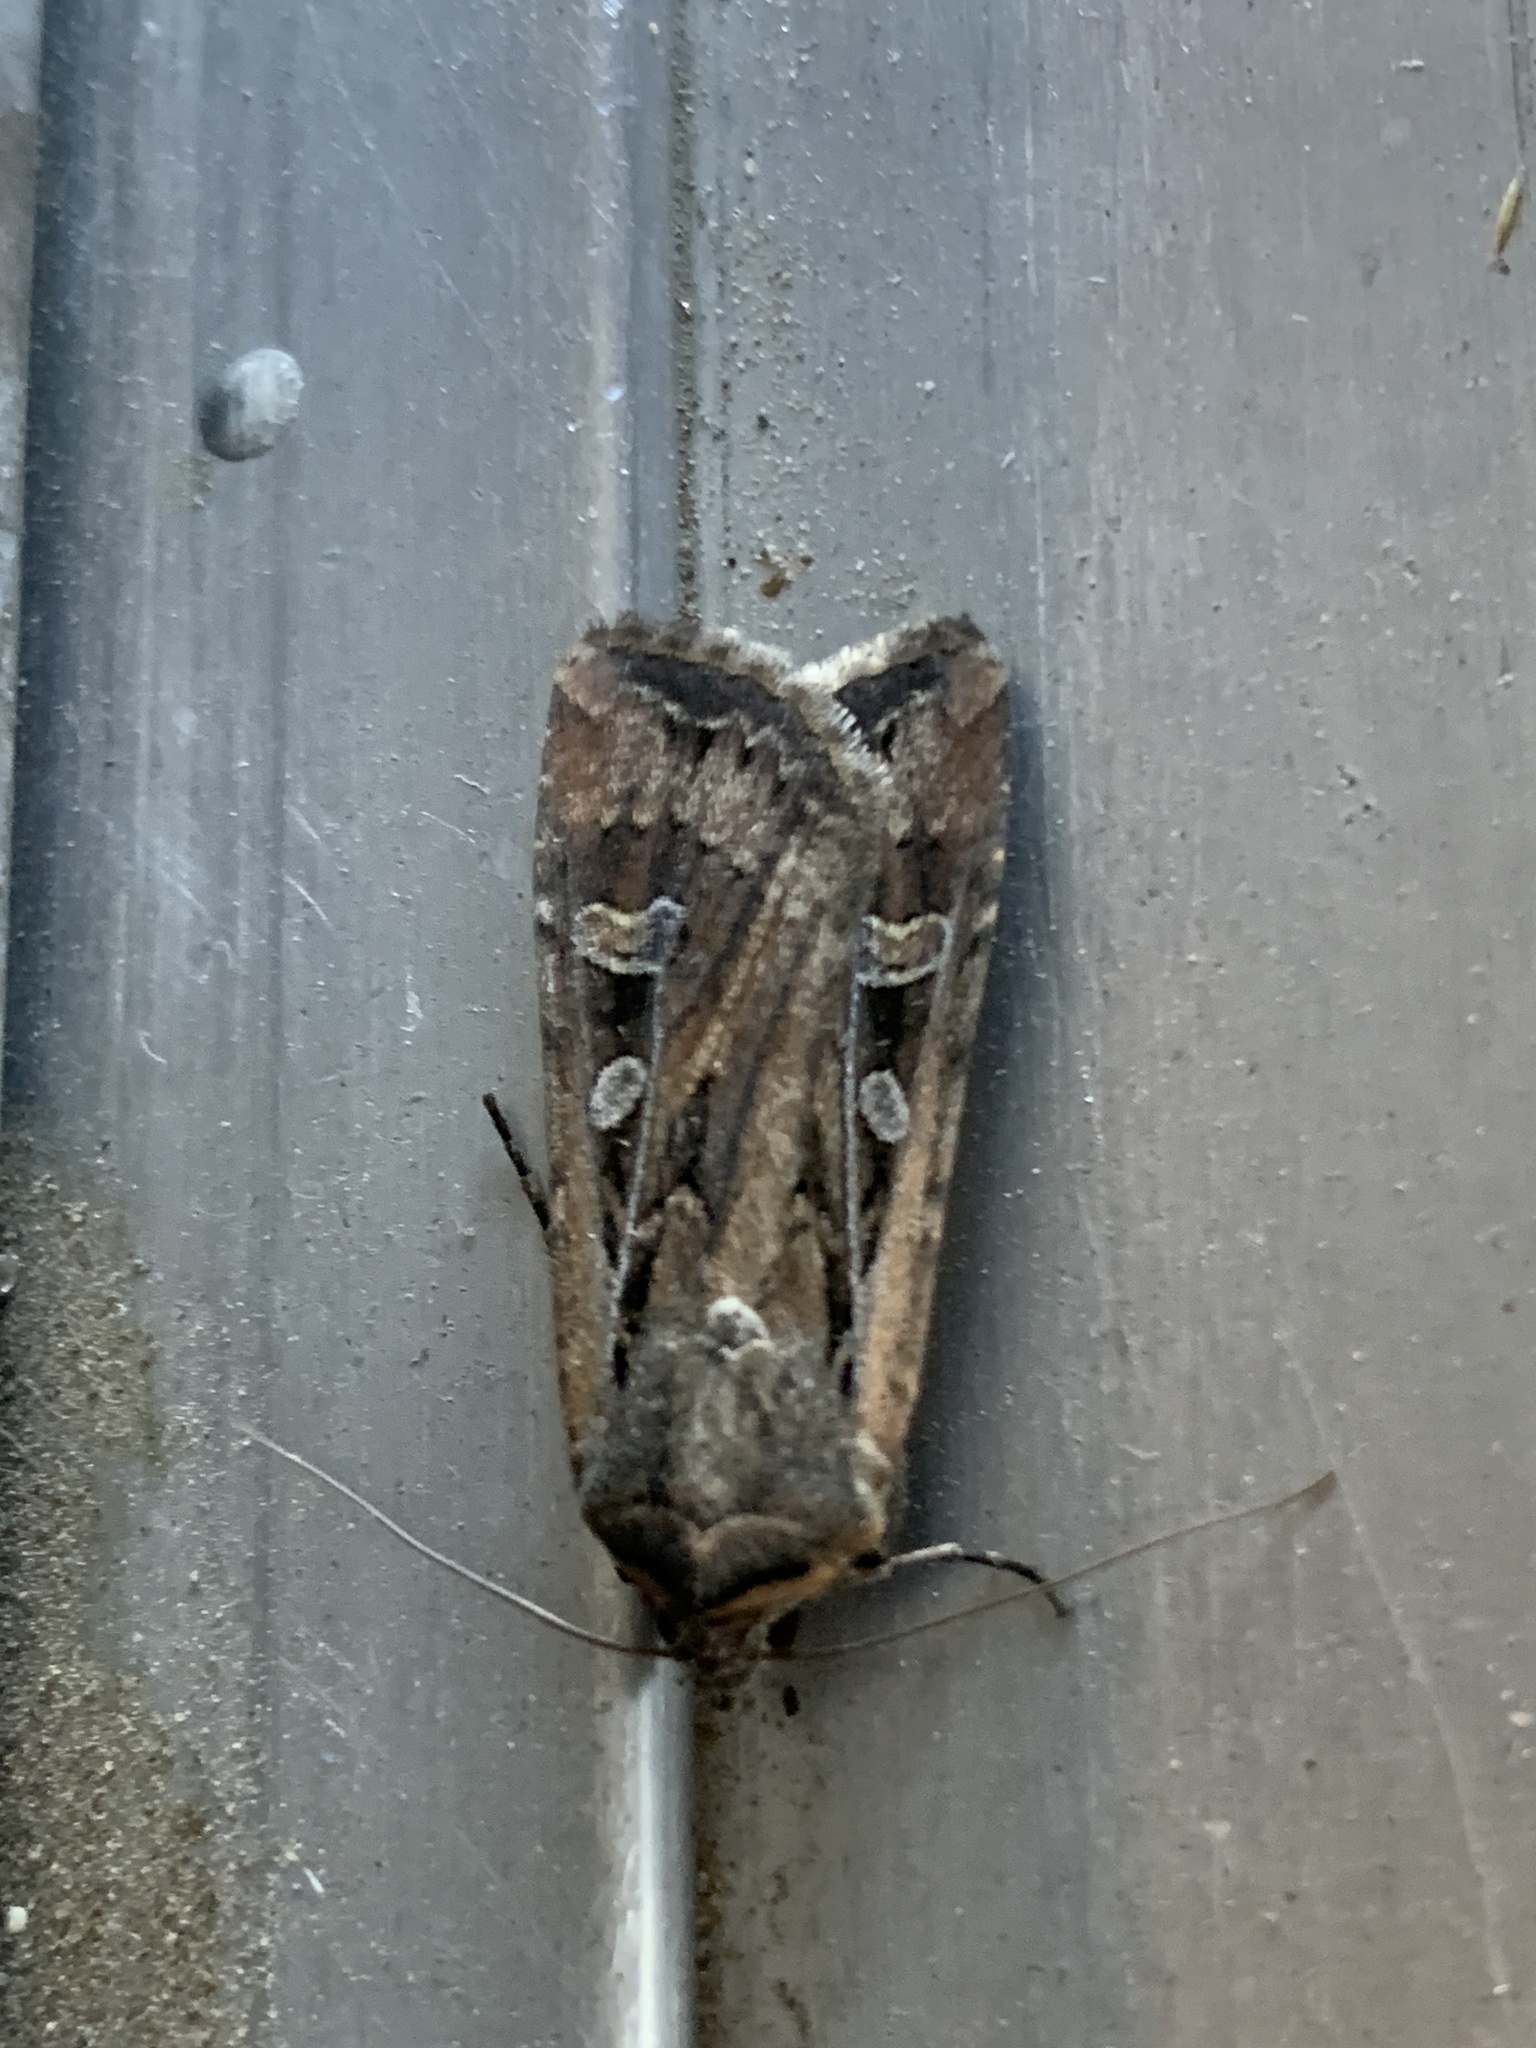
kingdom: Animalia
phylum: Arthropoda
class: Insecta
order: Lepidoptera
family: Noctuidae
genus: Euxoa
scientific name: Euxoa auxiliaris
